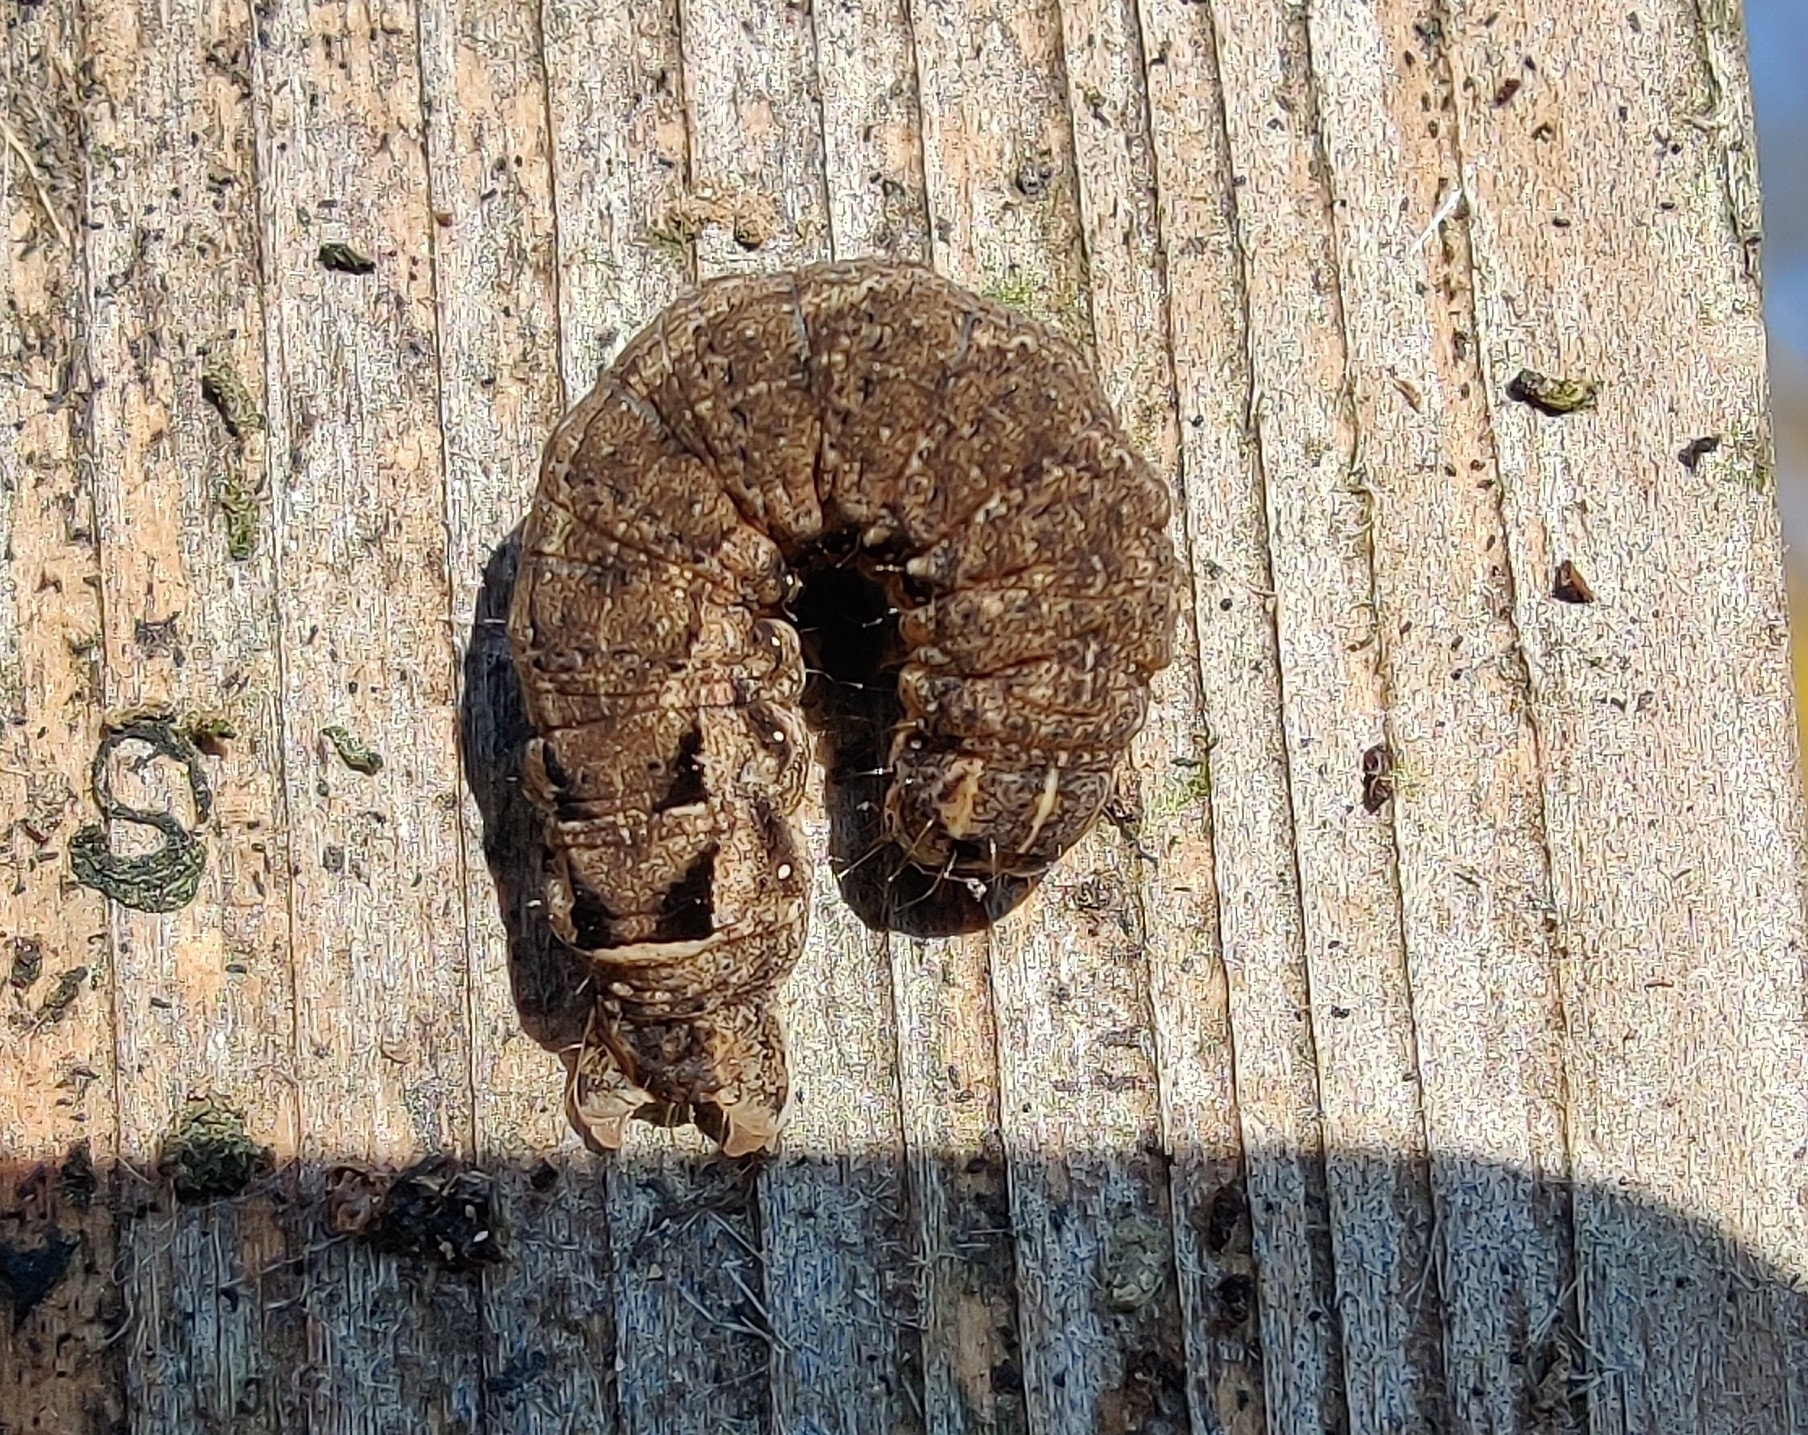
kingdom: Animalia
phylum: Arthropoda
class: Insecta
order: Lepidoptera
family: Noctuidae
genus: Noctua
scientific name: Noctua comes
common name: Lesser yellow underwing
